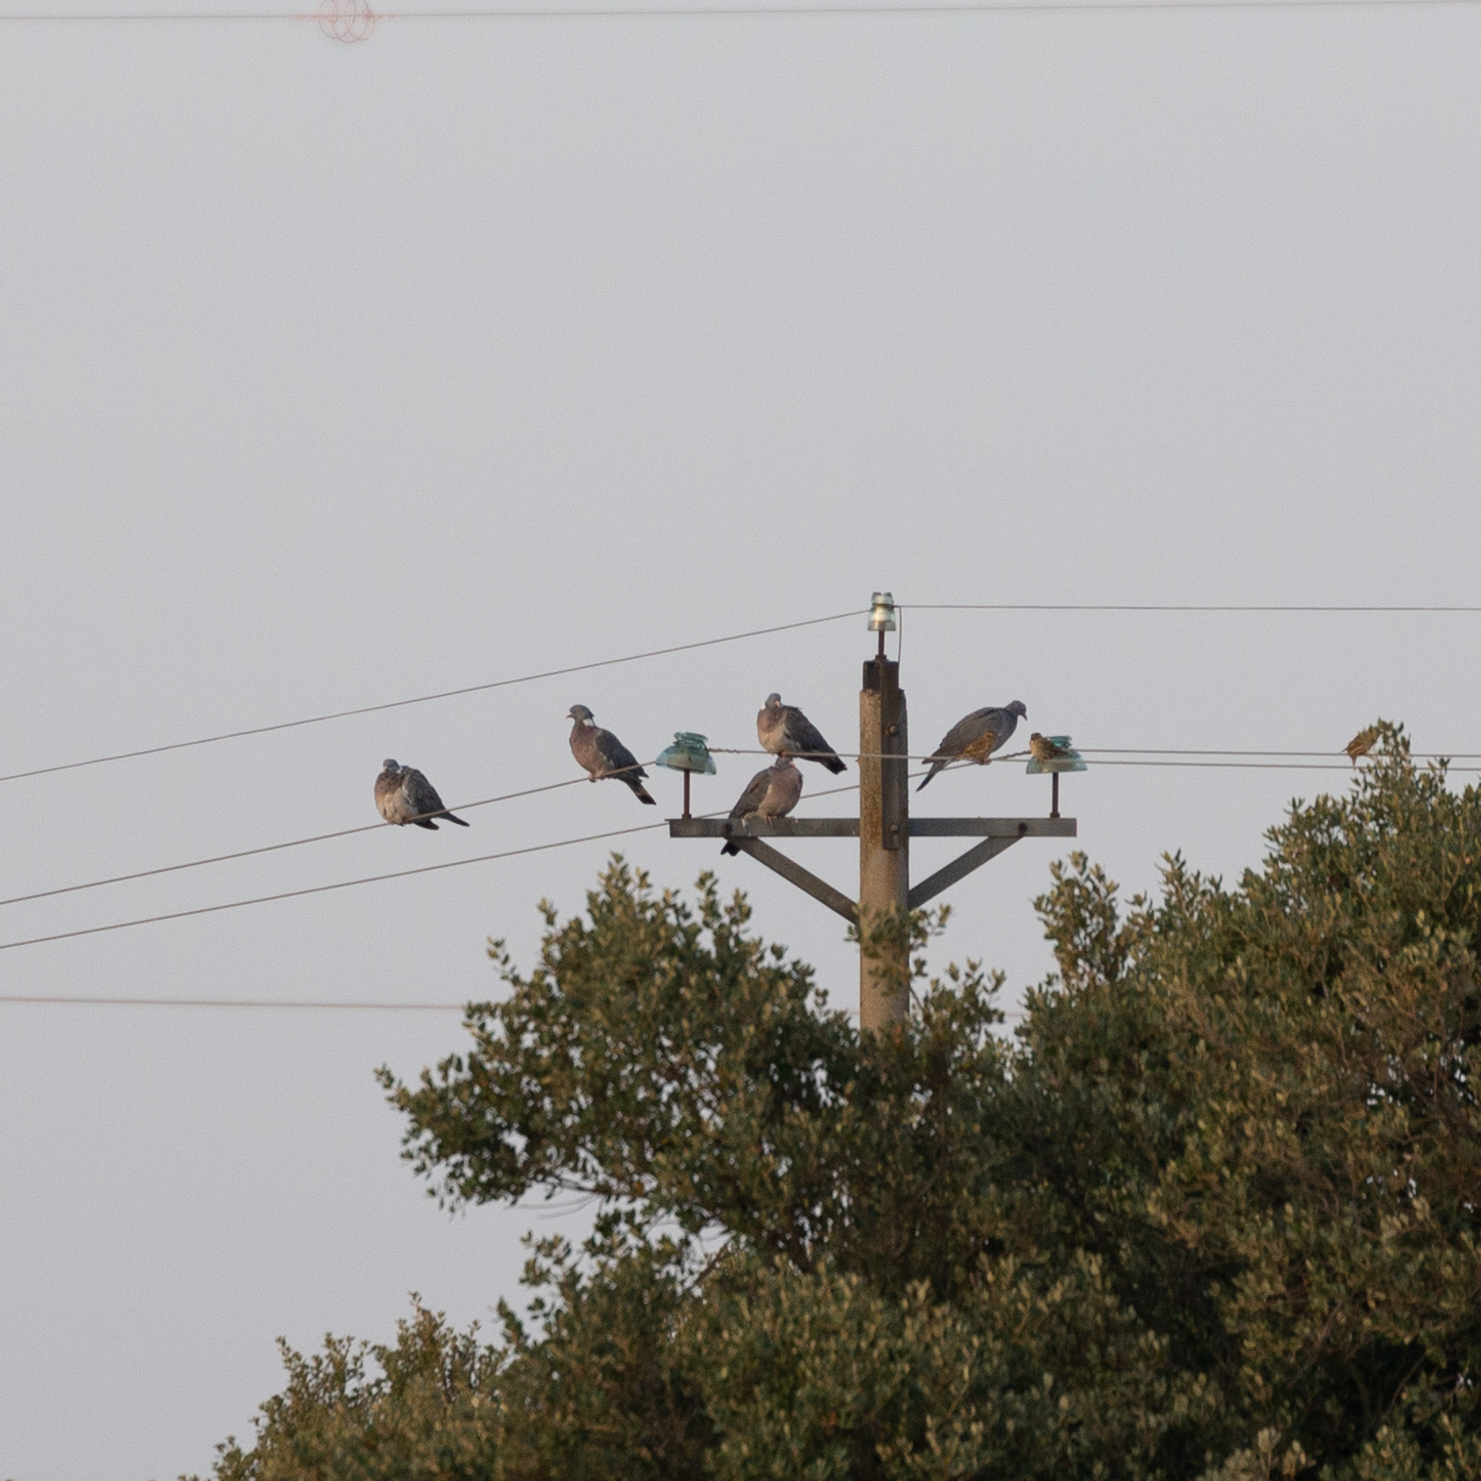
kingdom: Animalia
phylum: Chordata
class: Aves
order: Columbiformes
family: Columbidae
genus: Columba
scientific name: Columba palumbus
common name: Common wood pigeon
